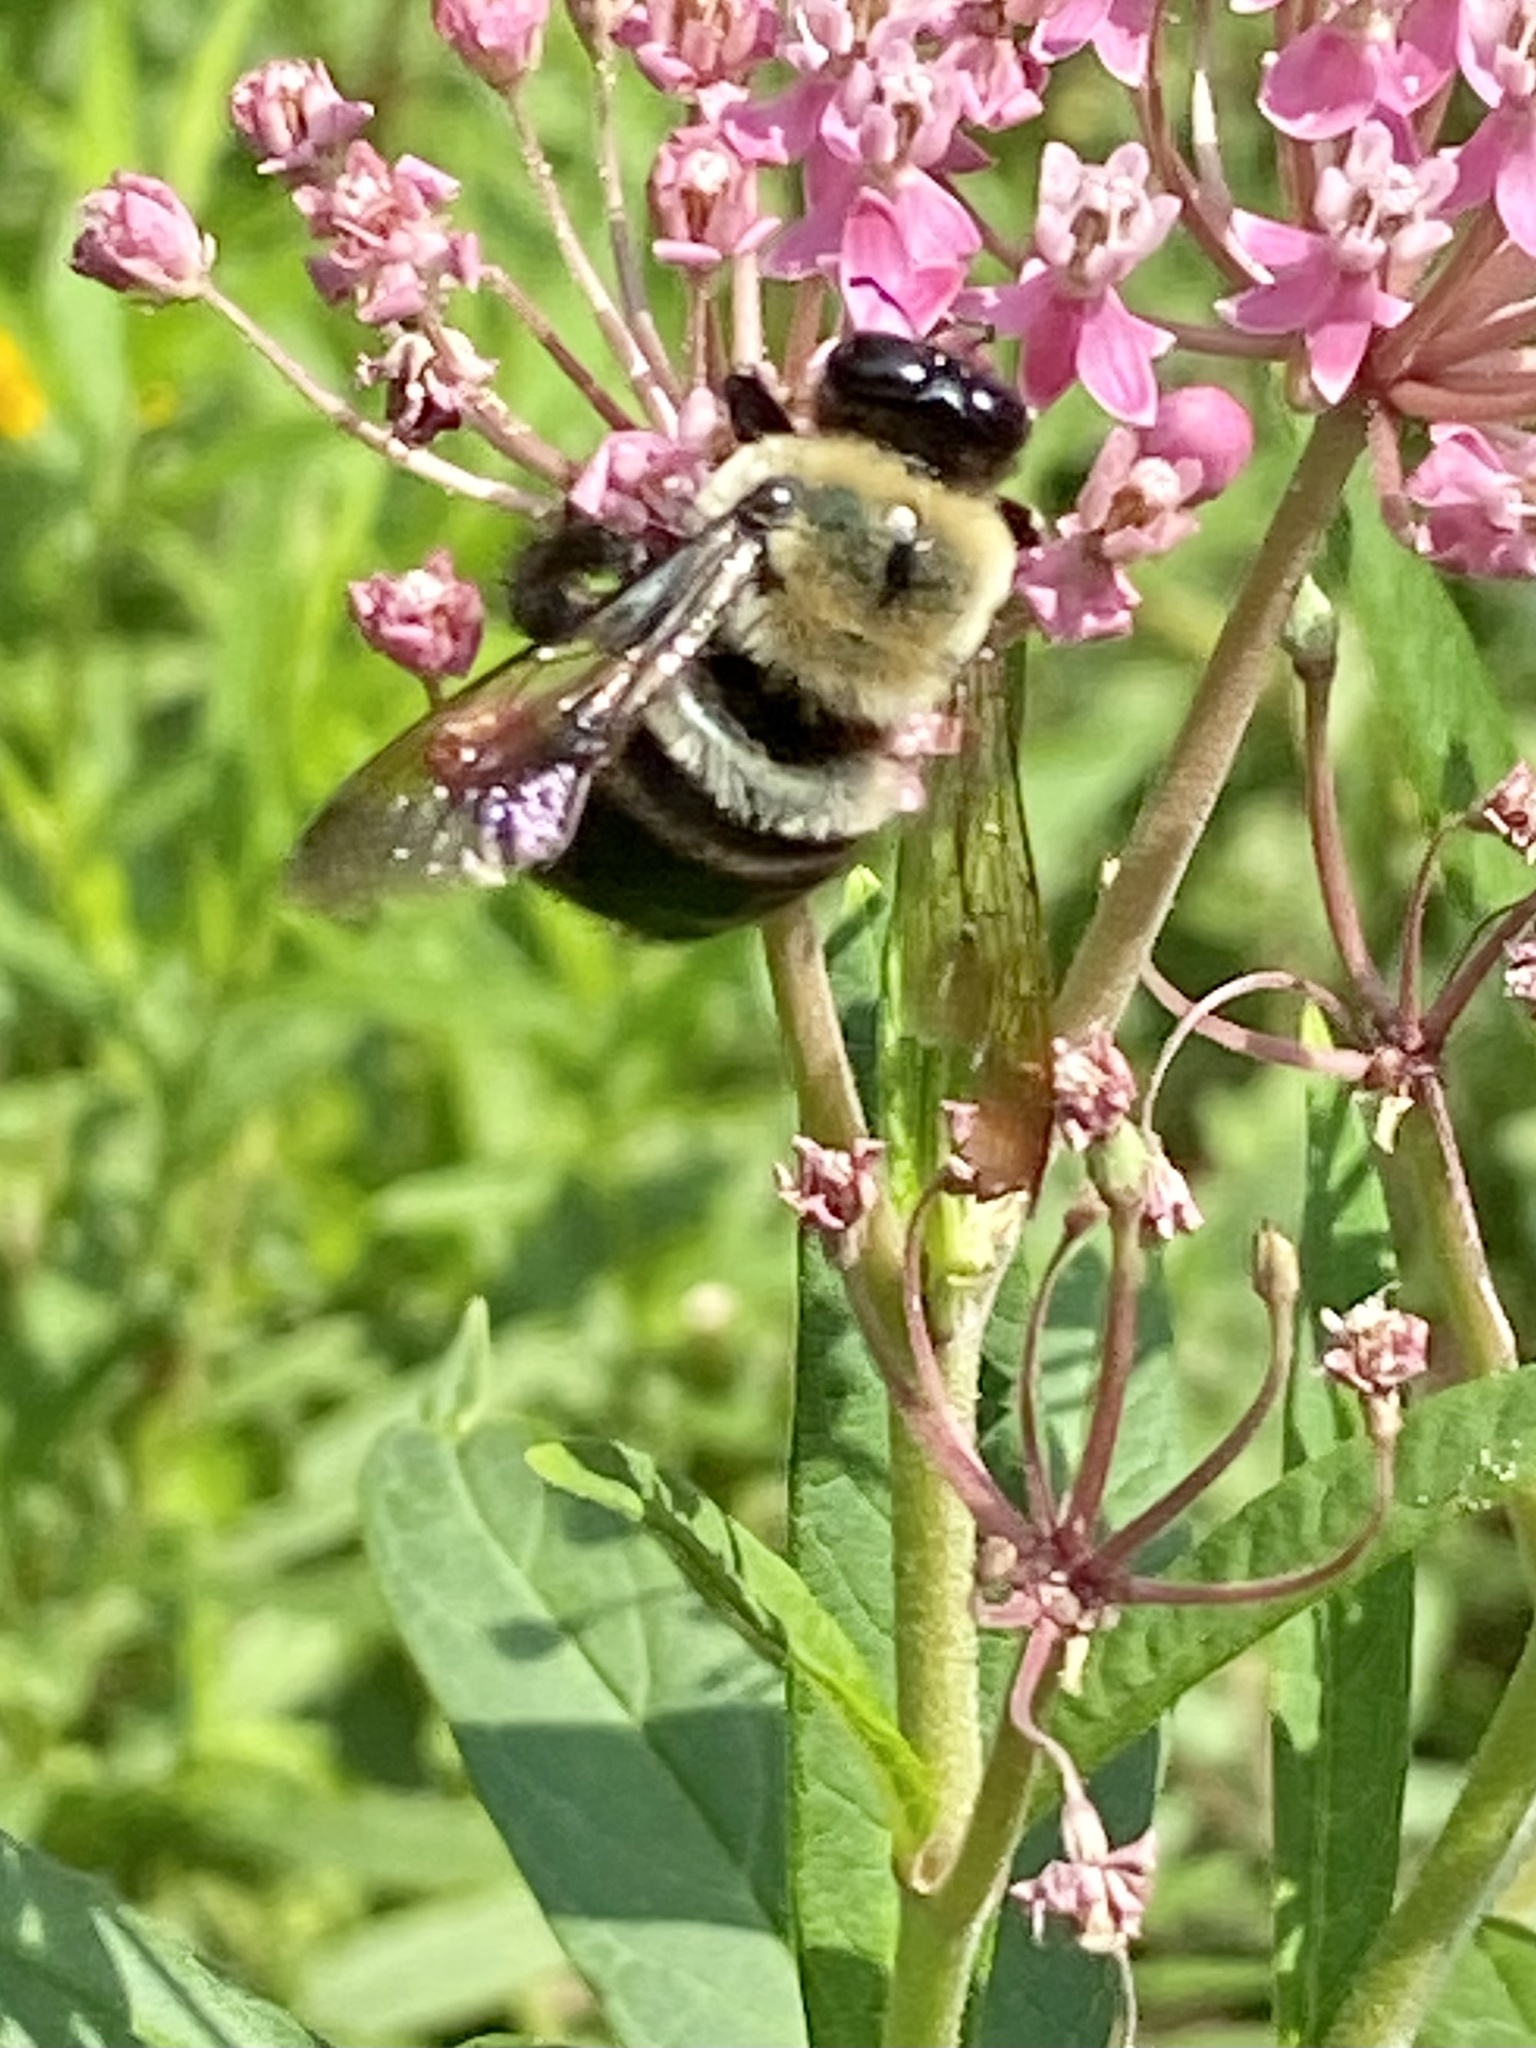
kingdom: Animalia
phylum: Arthropoda
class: Insecta
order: Hymenoptera
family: Apidae
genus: Xylocopa
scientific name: Xylocopa virginica
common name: Carpenter bee
